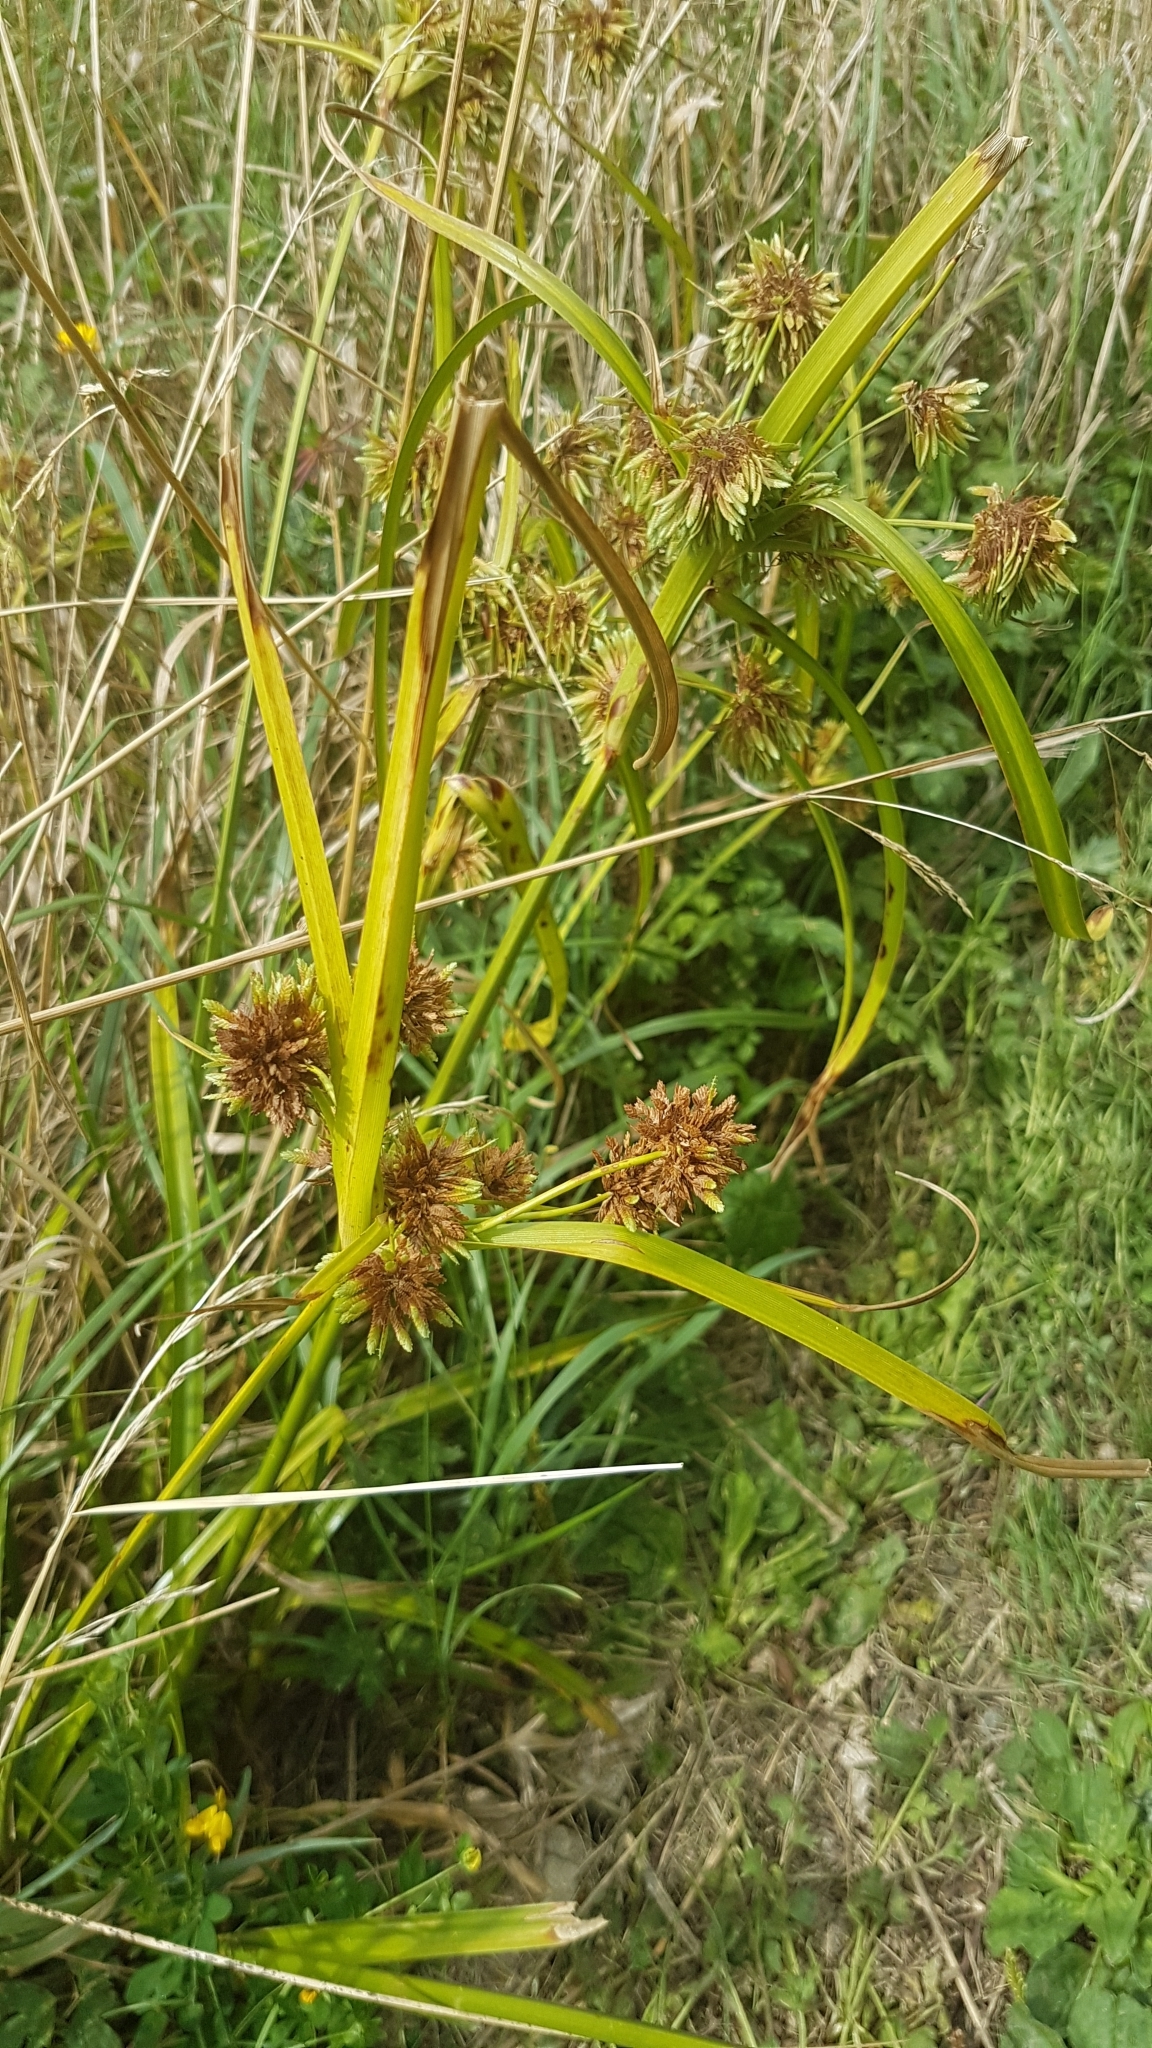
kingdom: Plantae
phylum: Tracheophyta
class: Liliopsida
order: Poales
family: Cyperaceae
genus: Cyperus
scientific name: Cyperus ustulatus
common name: Giant umbrella-sedge
